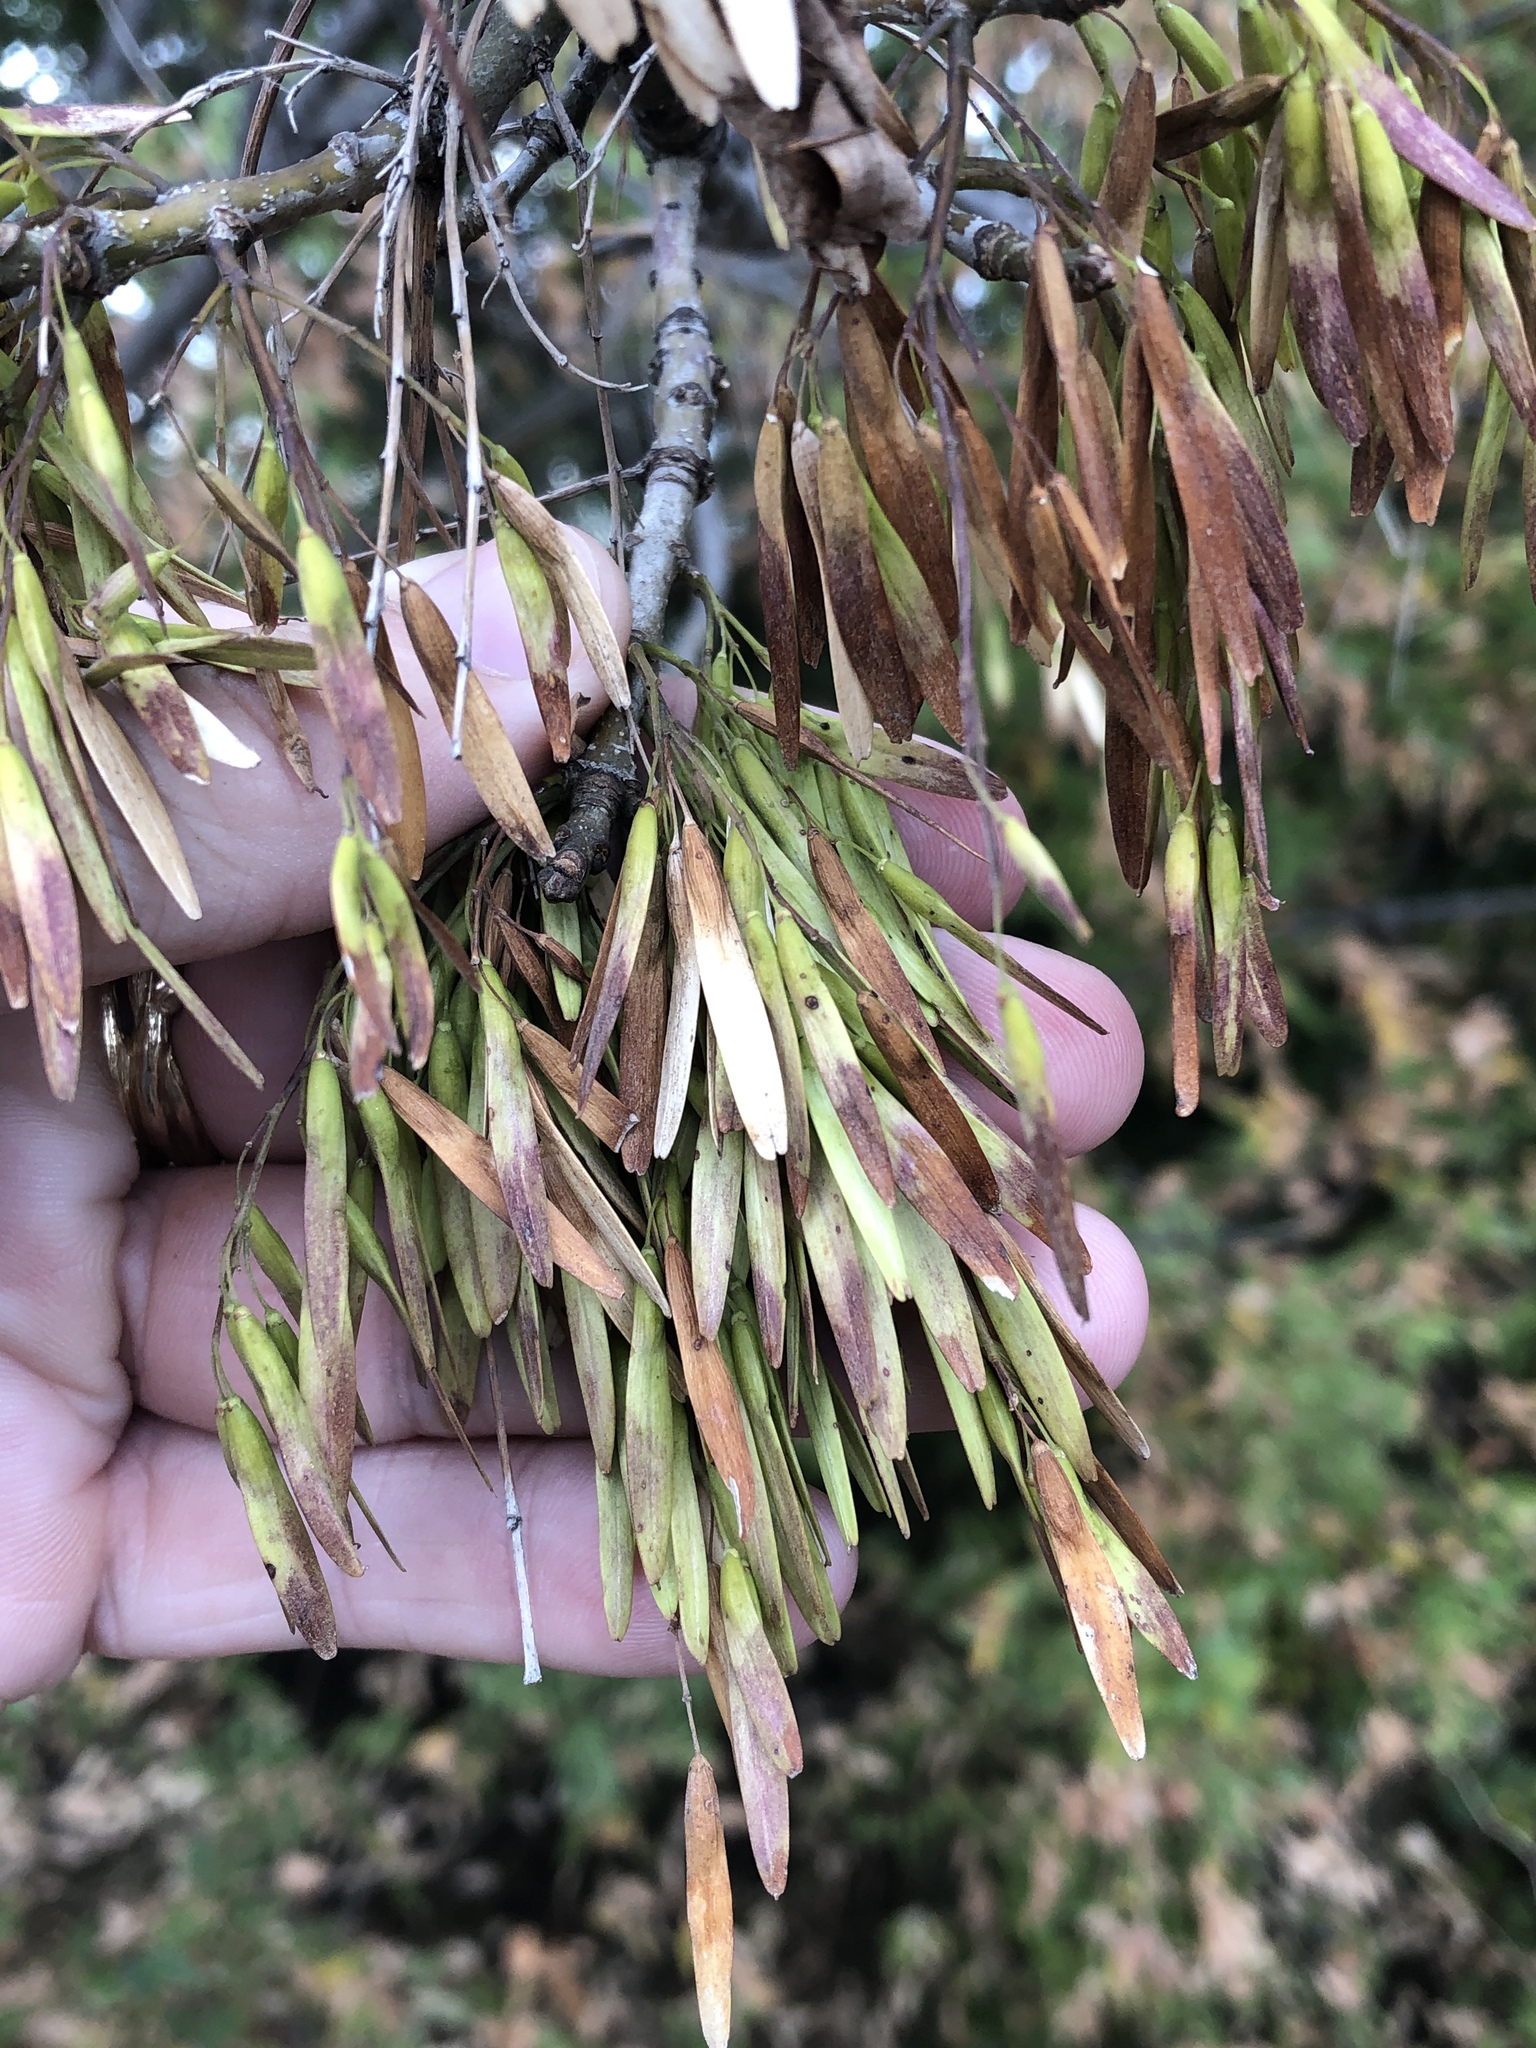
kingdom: Plantae
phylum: Tracheophyta
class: Magnoliopsida
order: Lamiales
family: Oleaceae
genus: Fraxinus
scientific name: Fraxinus albicans
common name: Texas ash
